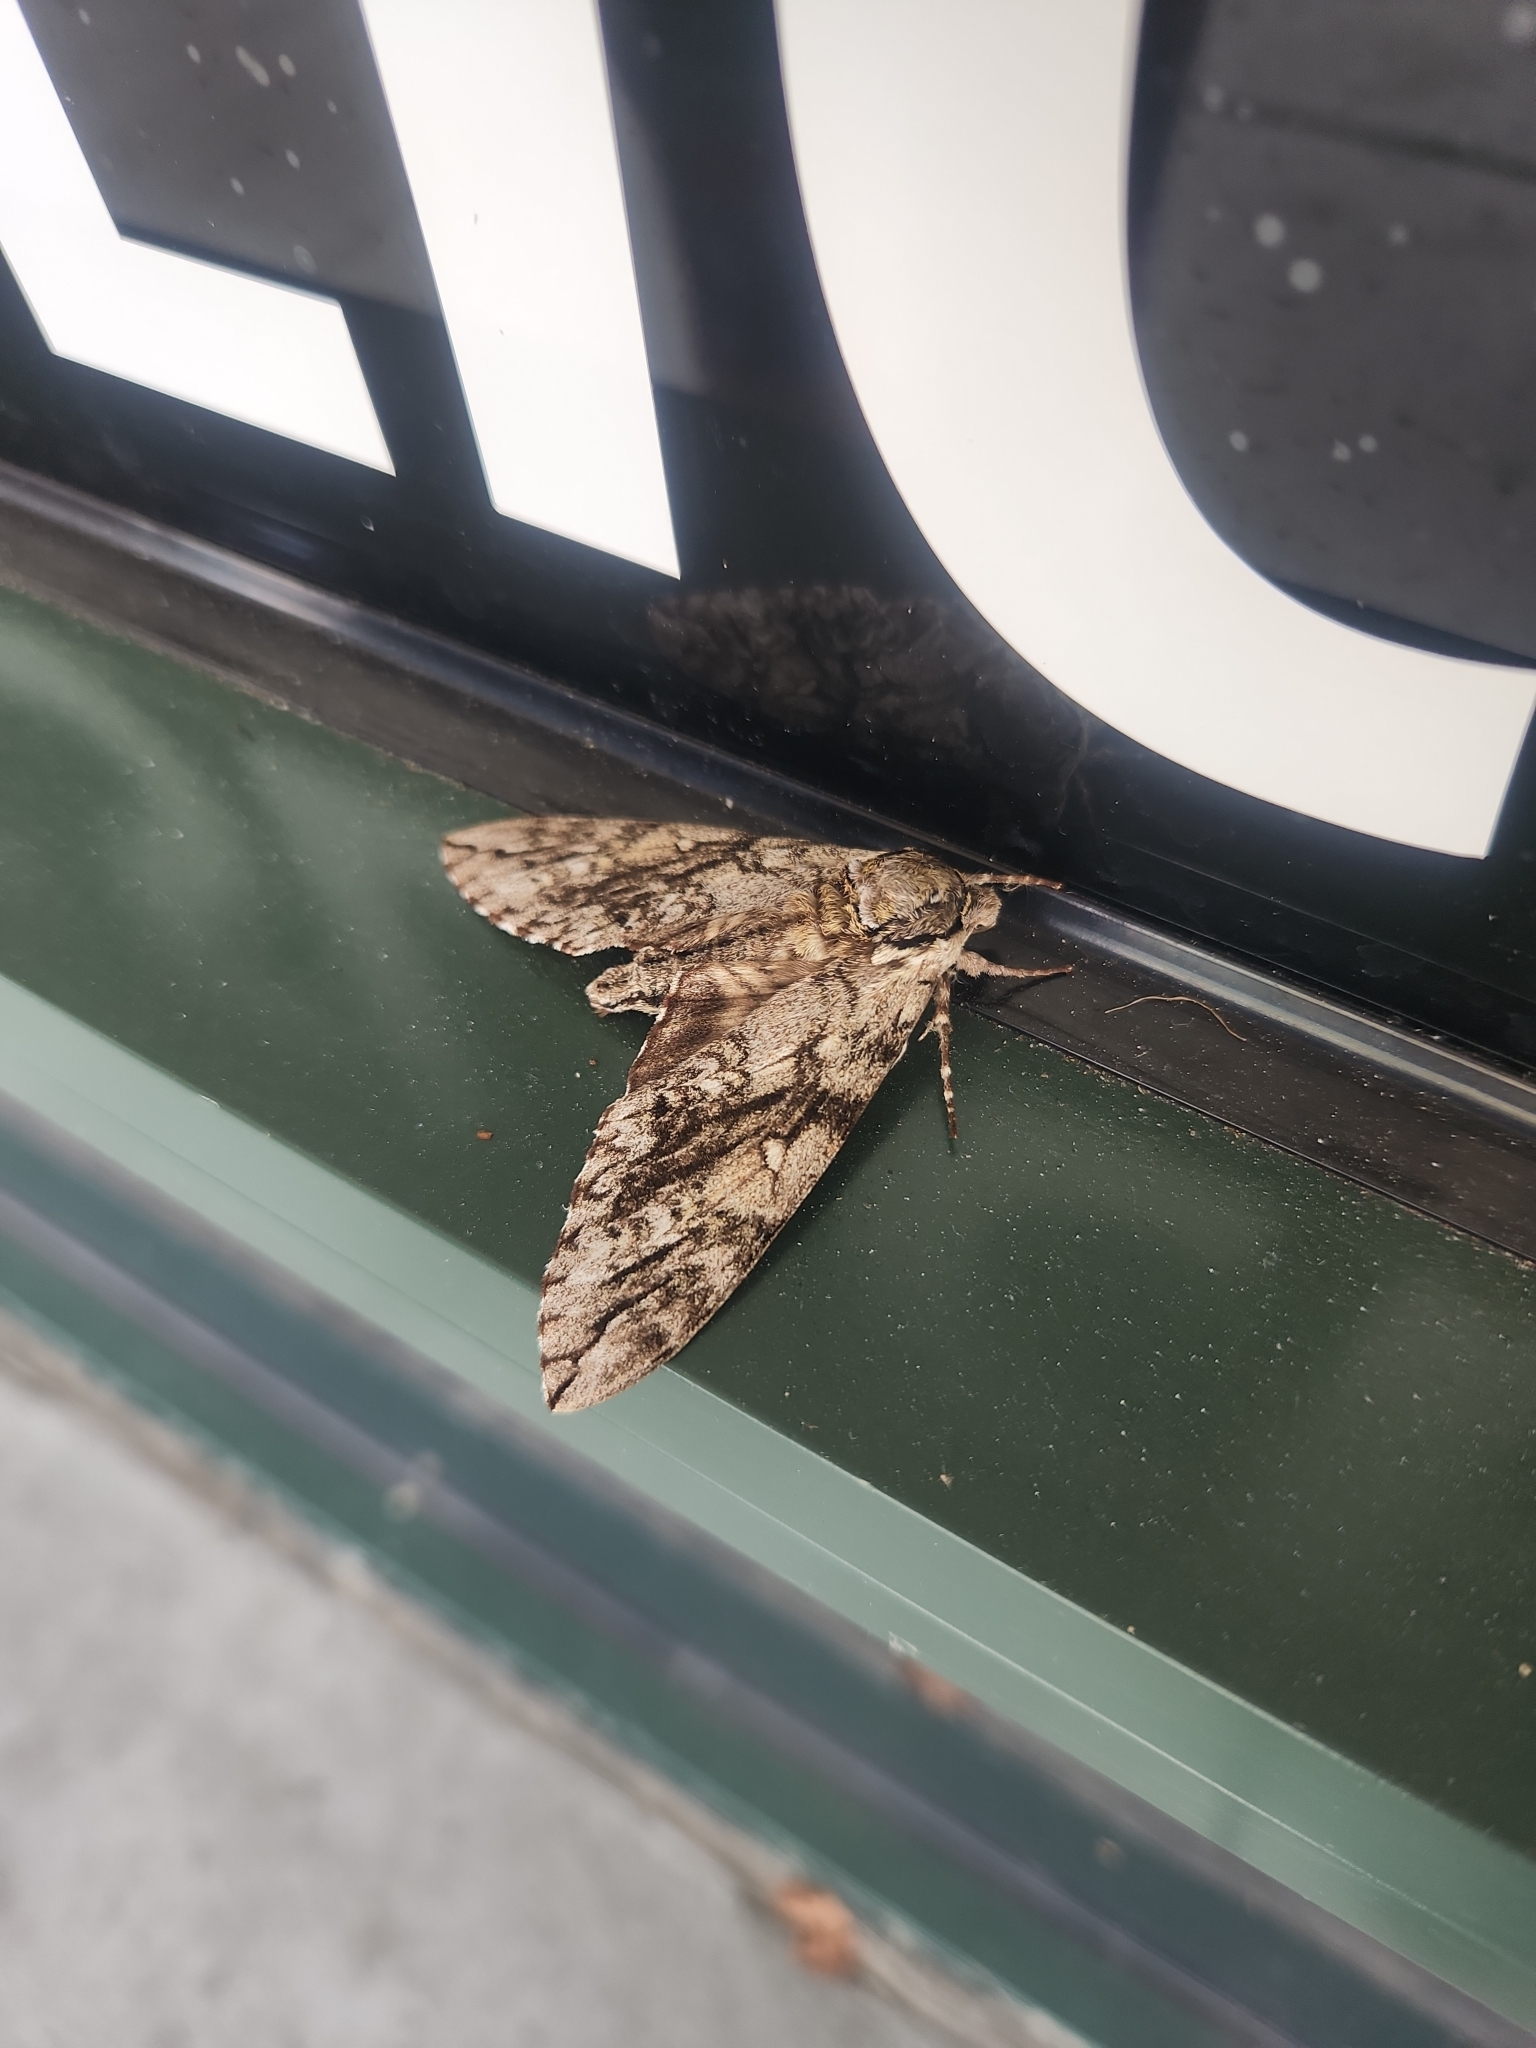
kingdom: Animalia
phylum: Arthropoda
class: Insecta
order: Lepidoptera
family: Sphingidae
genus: Ceratomia
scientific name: Ceratomia undulosa
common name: Waved sphinx
